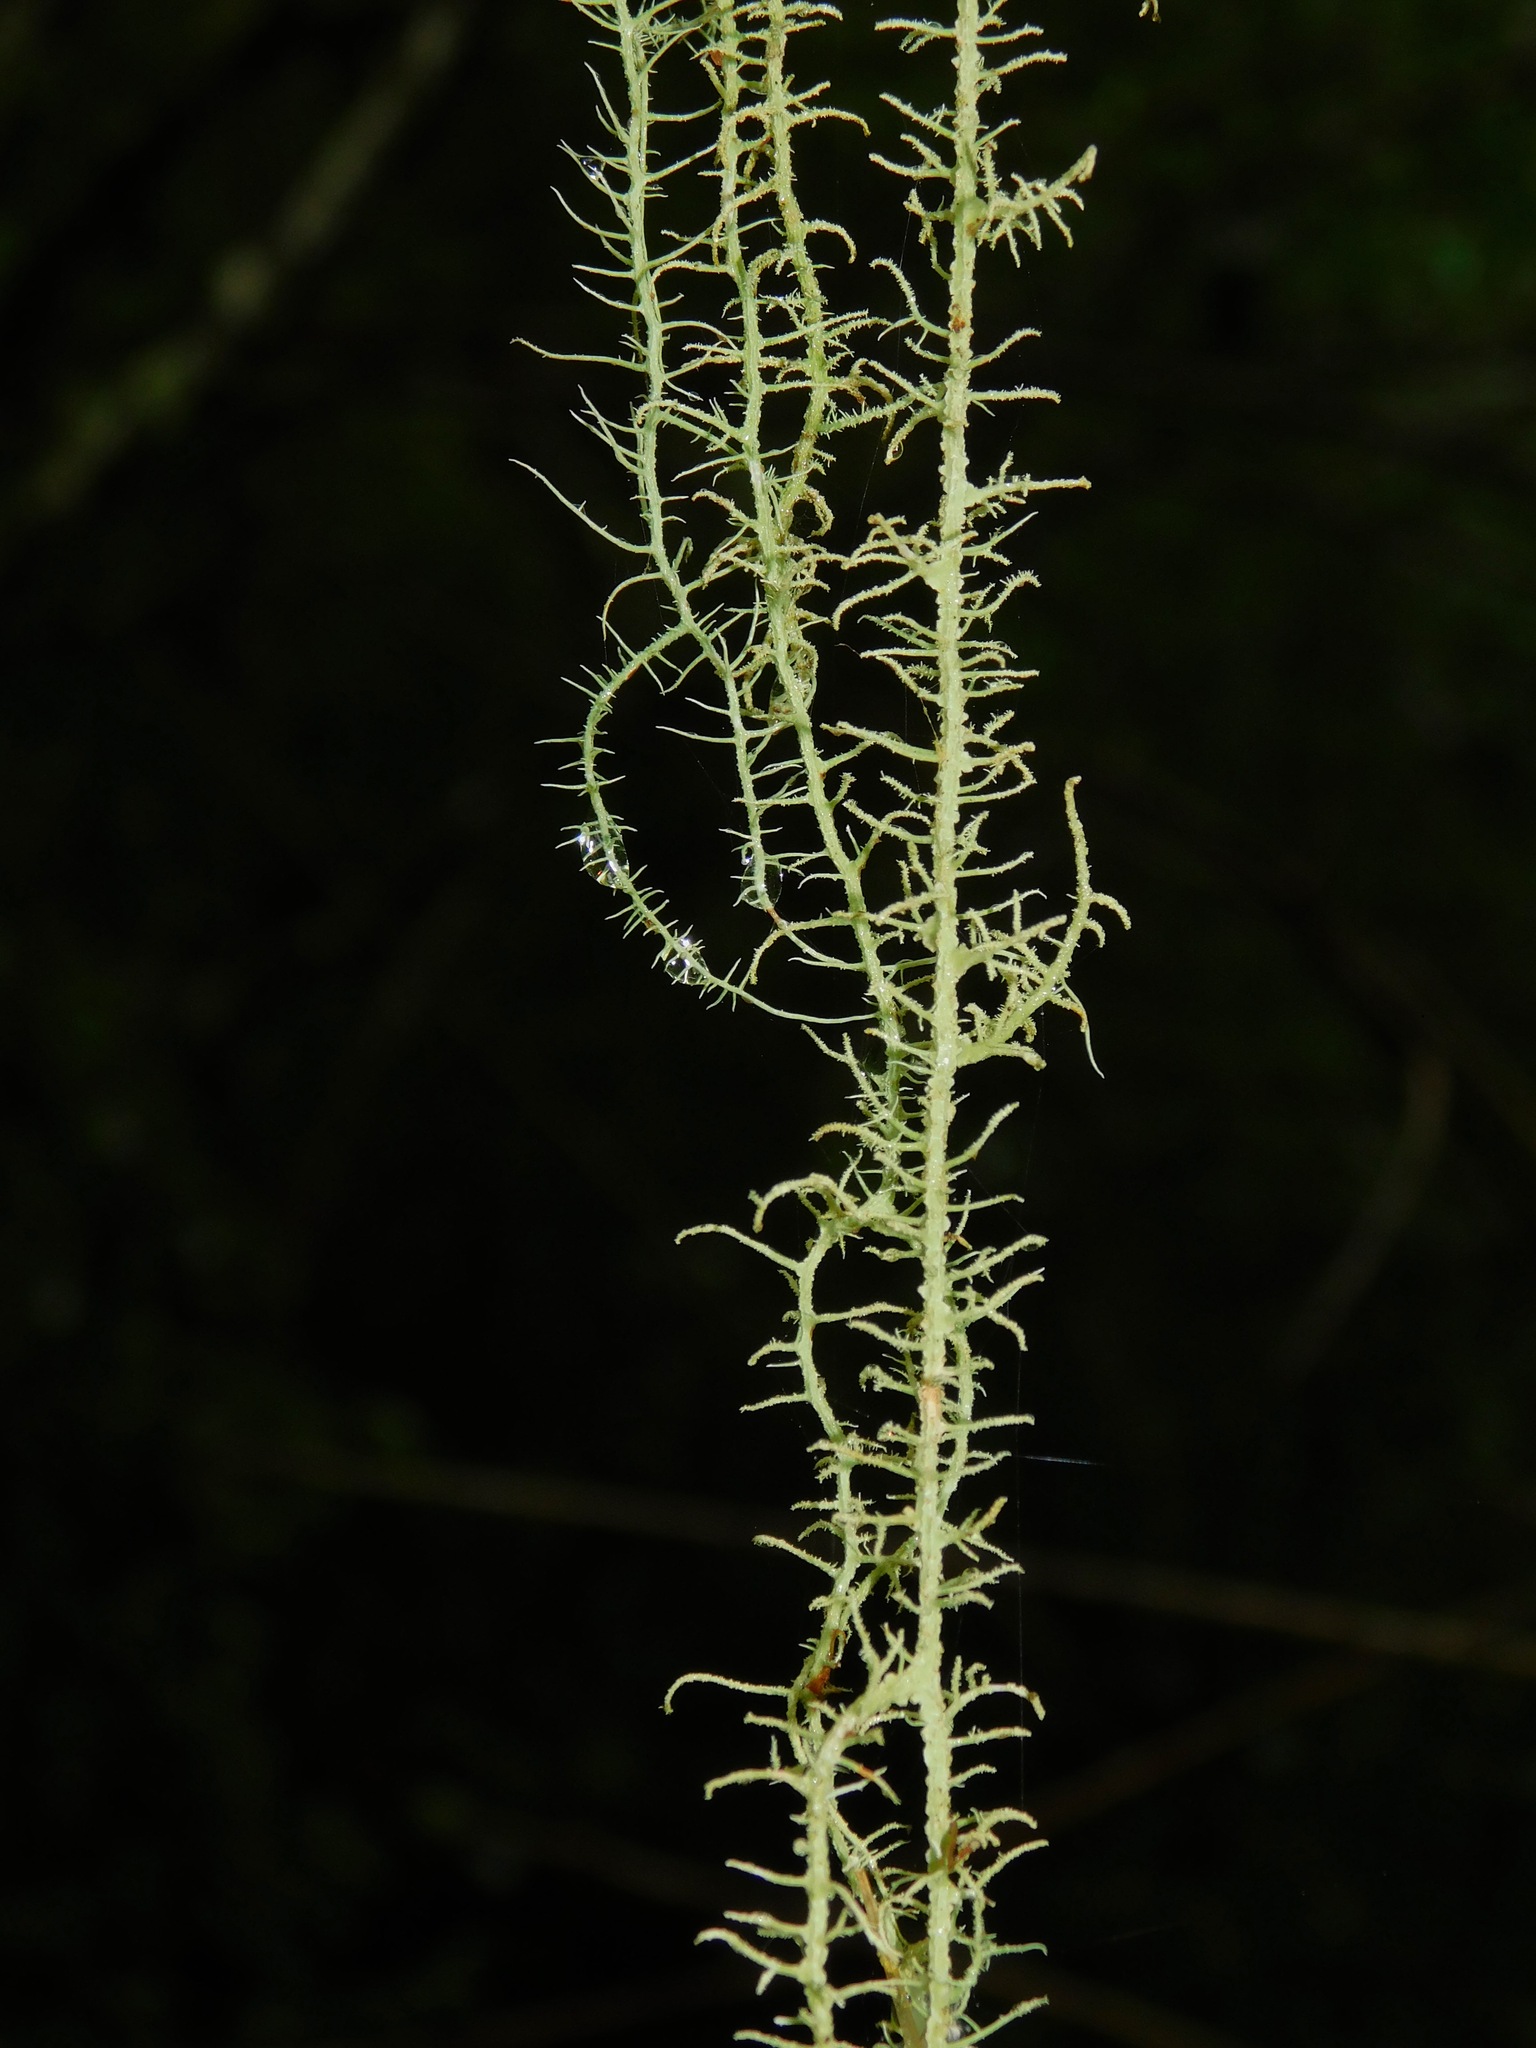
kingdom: Fungi
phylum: Ascomycota
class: Lecanoromycetes
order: Lecanorales
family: Parmeliaceae
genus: Usnea
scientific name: Usnea angulata
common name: Old-man’s beard lichen
